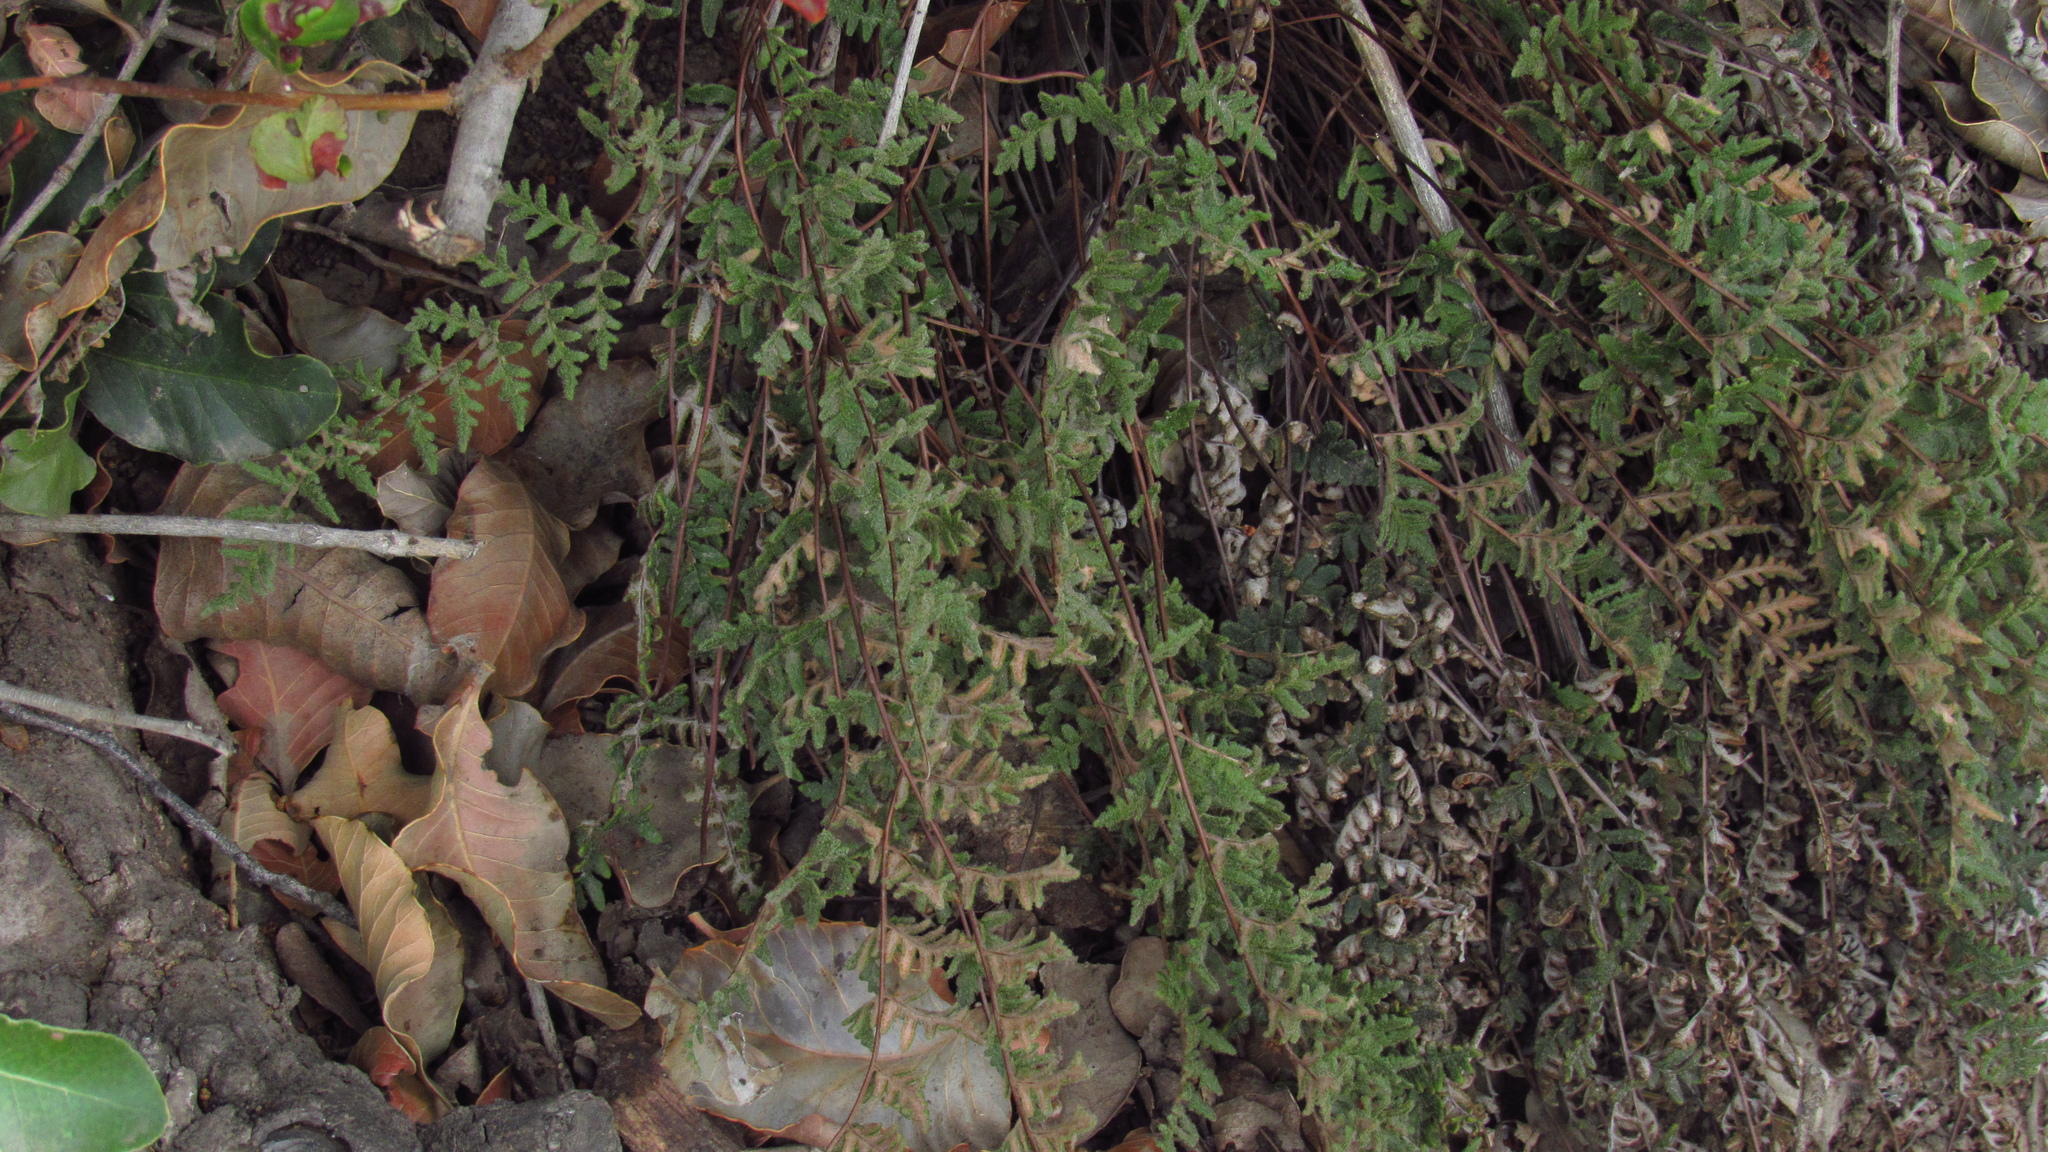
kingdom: Plantae
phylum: Tracheophyta
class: Polypodiopsida
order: Polypodiales
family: Pteridaceae
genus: Cheilanthes
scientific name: Cheilanthes hypoleuca
